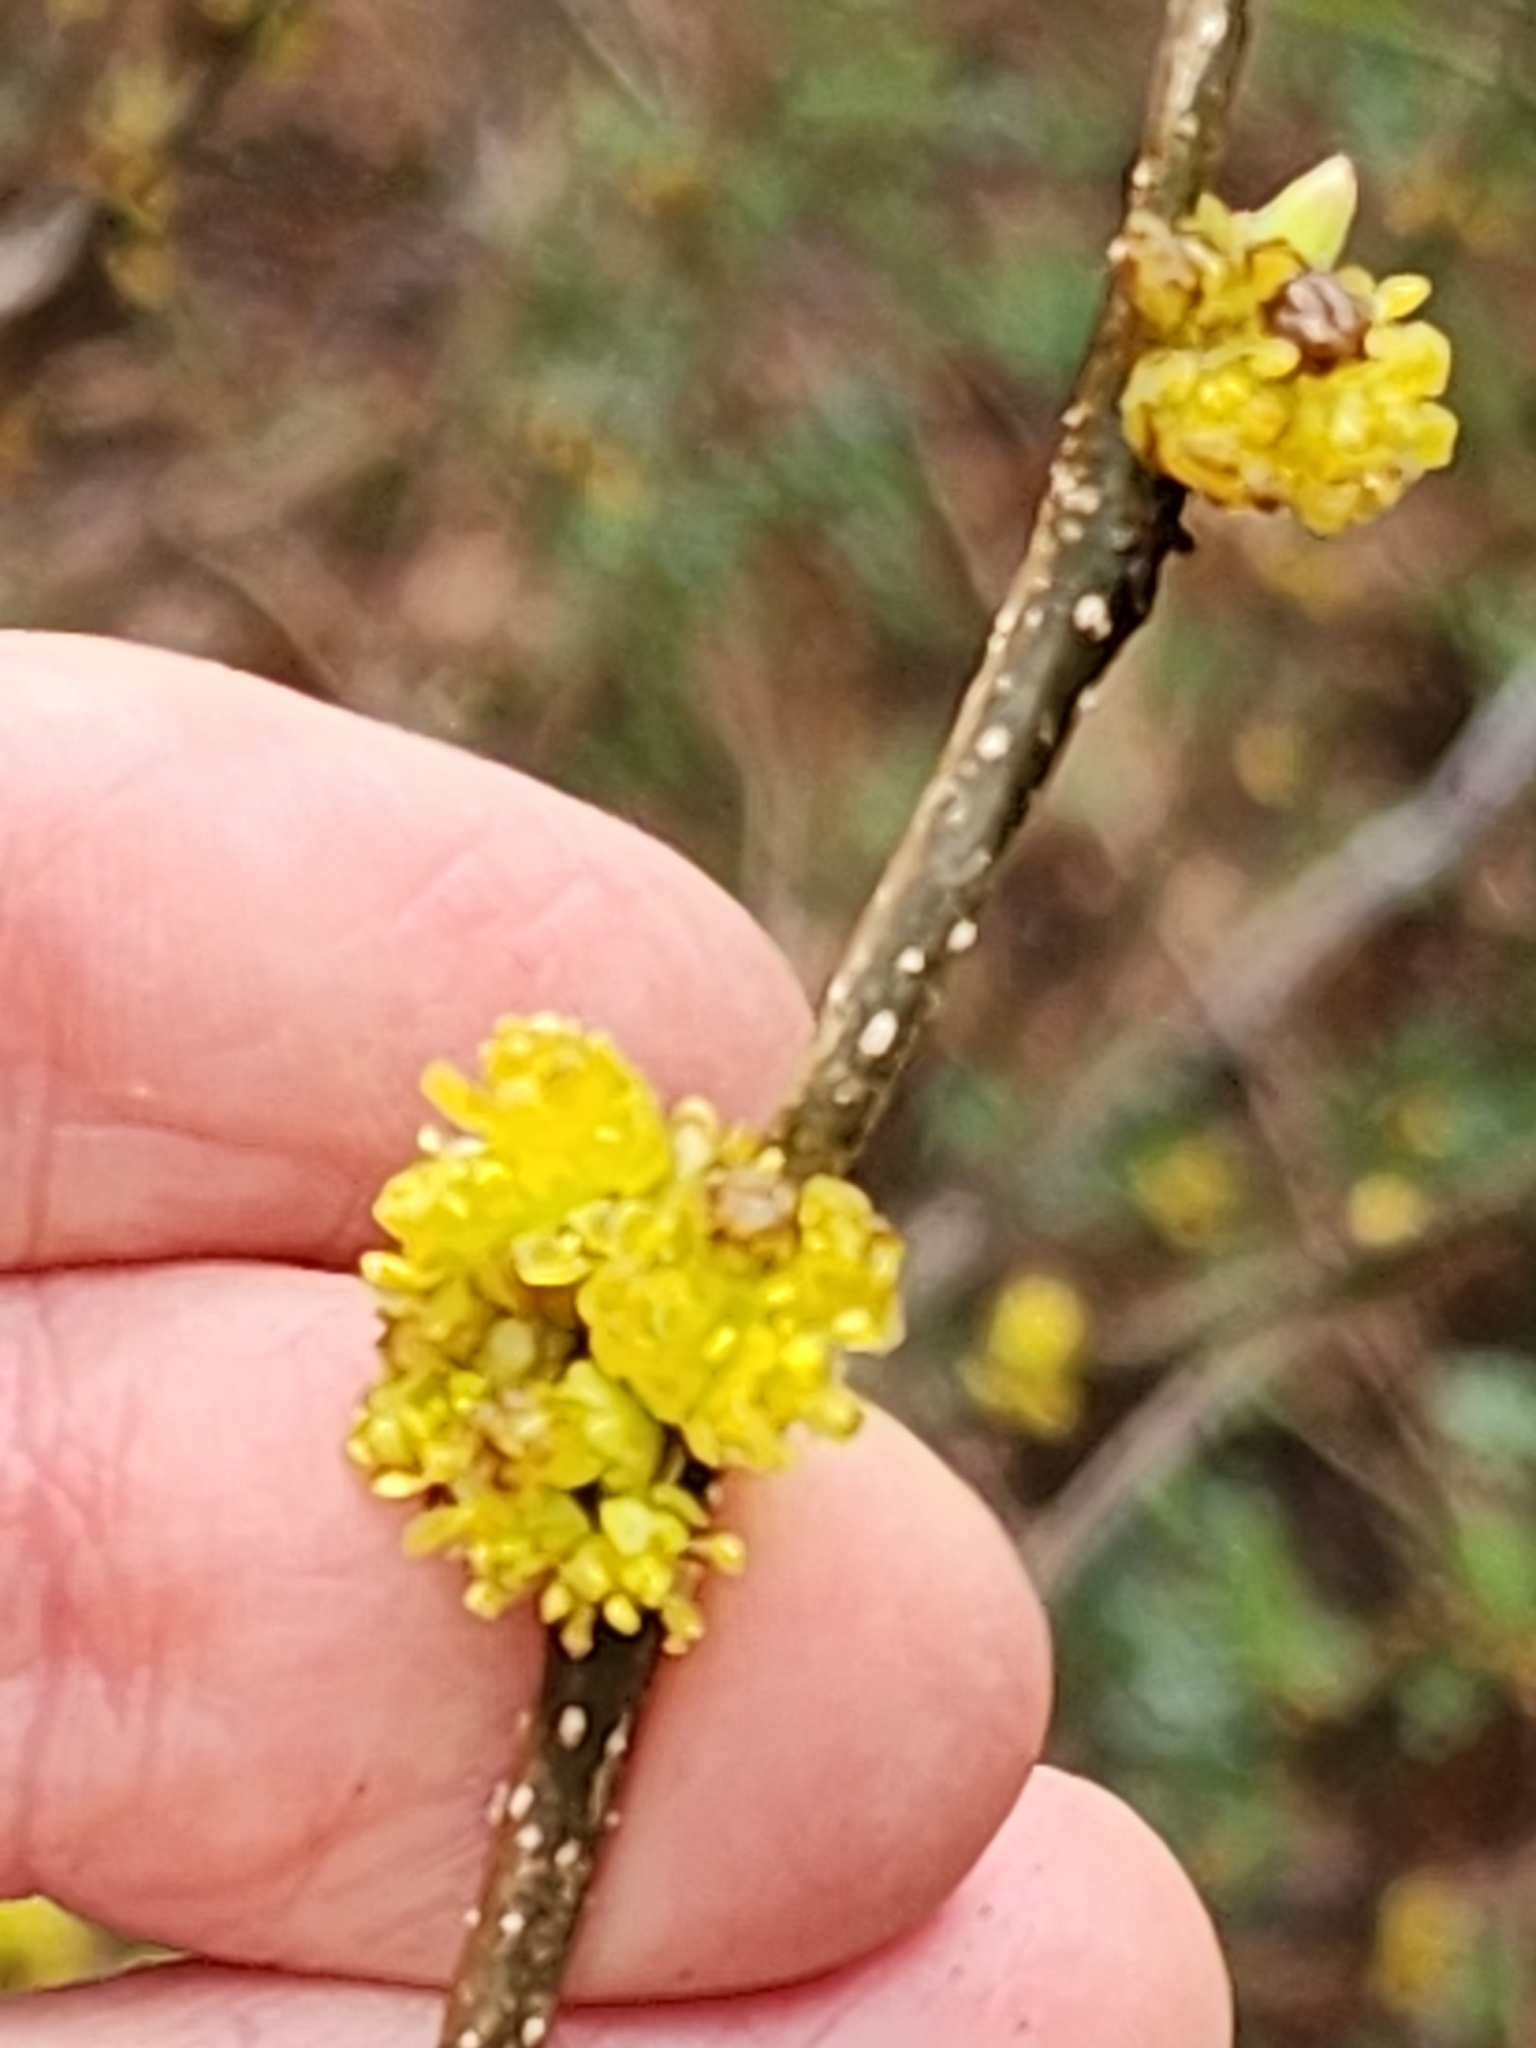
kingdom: Plantae
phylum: Tracheophyta
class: Magnoliopsida
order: Laurales
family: Lauraceae
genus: Lindera
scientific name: Lindera benzoin
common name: Spicebush
